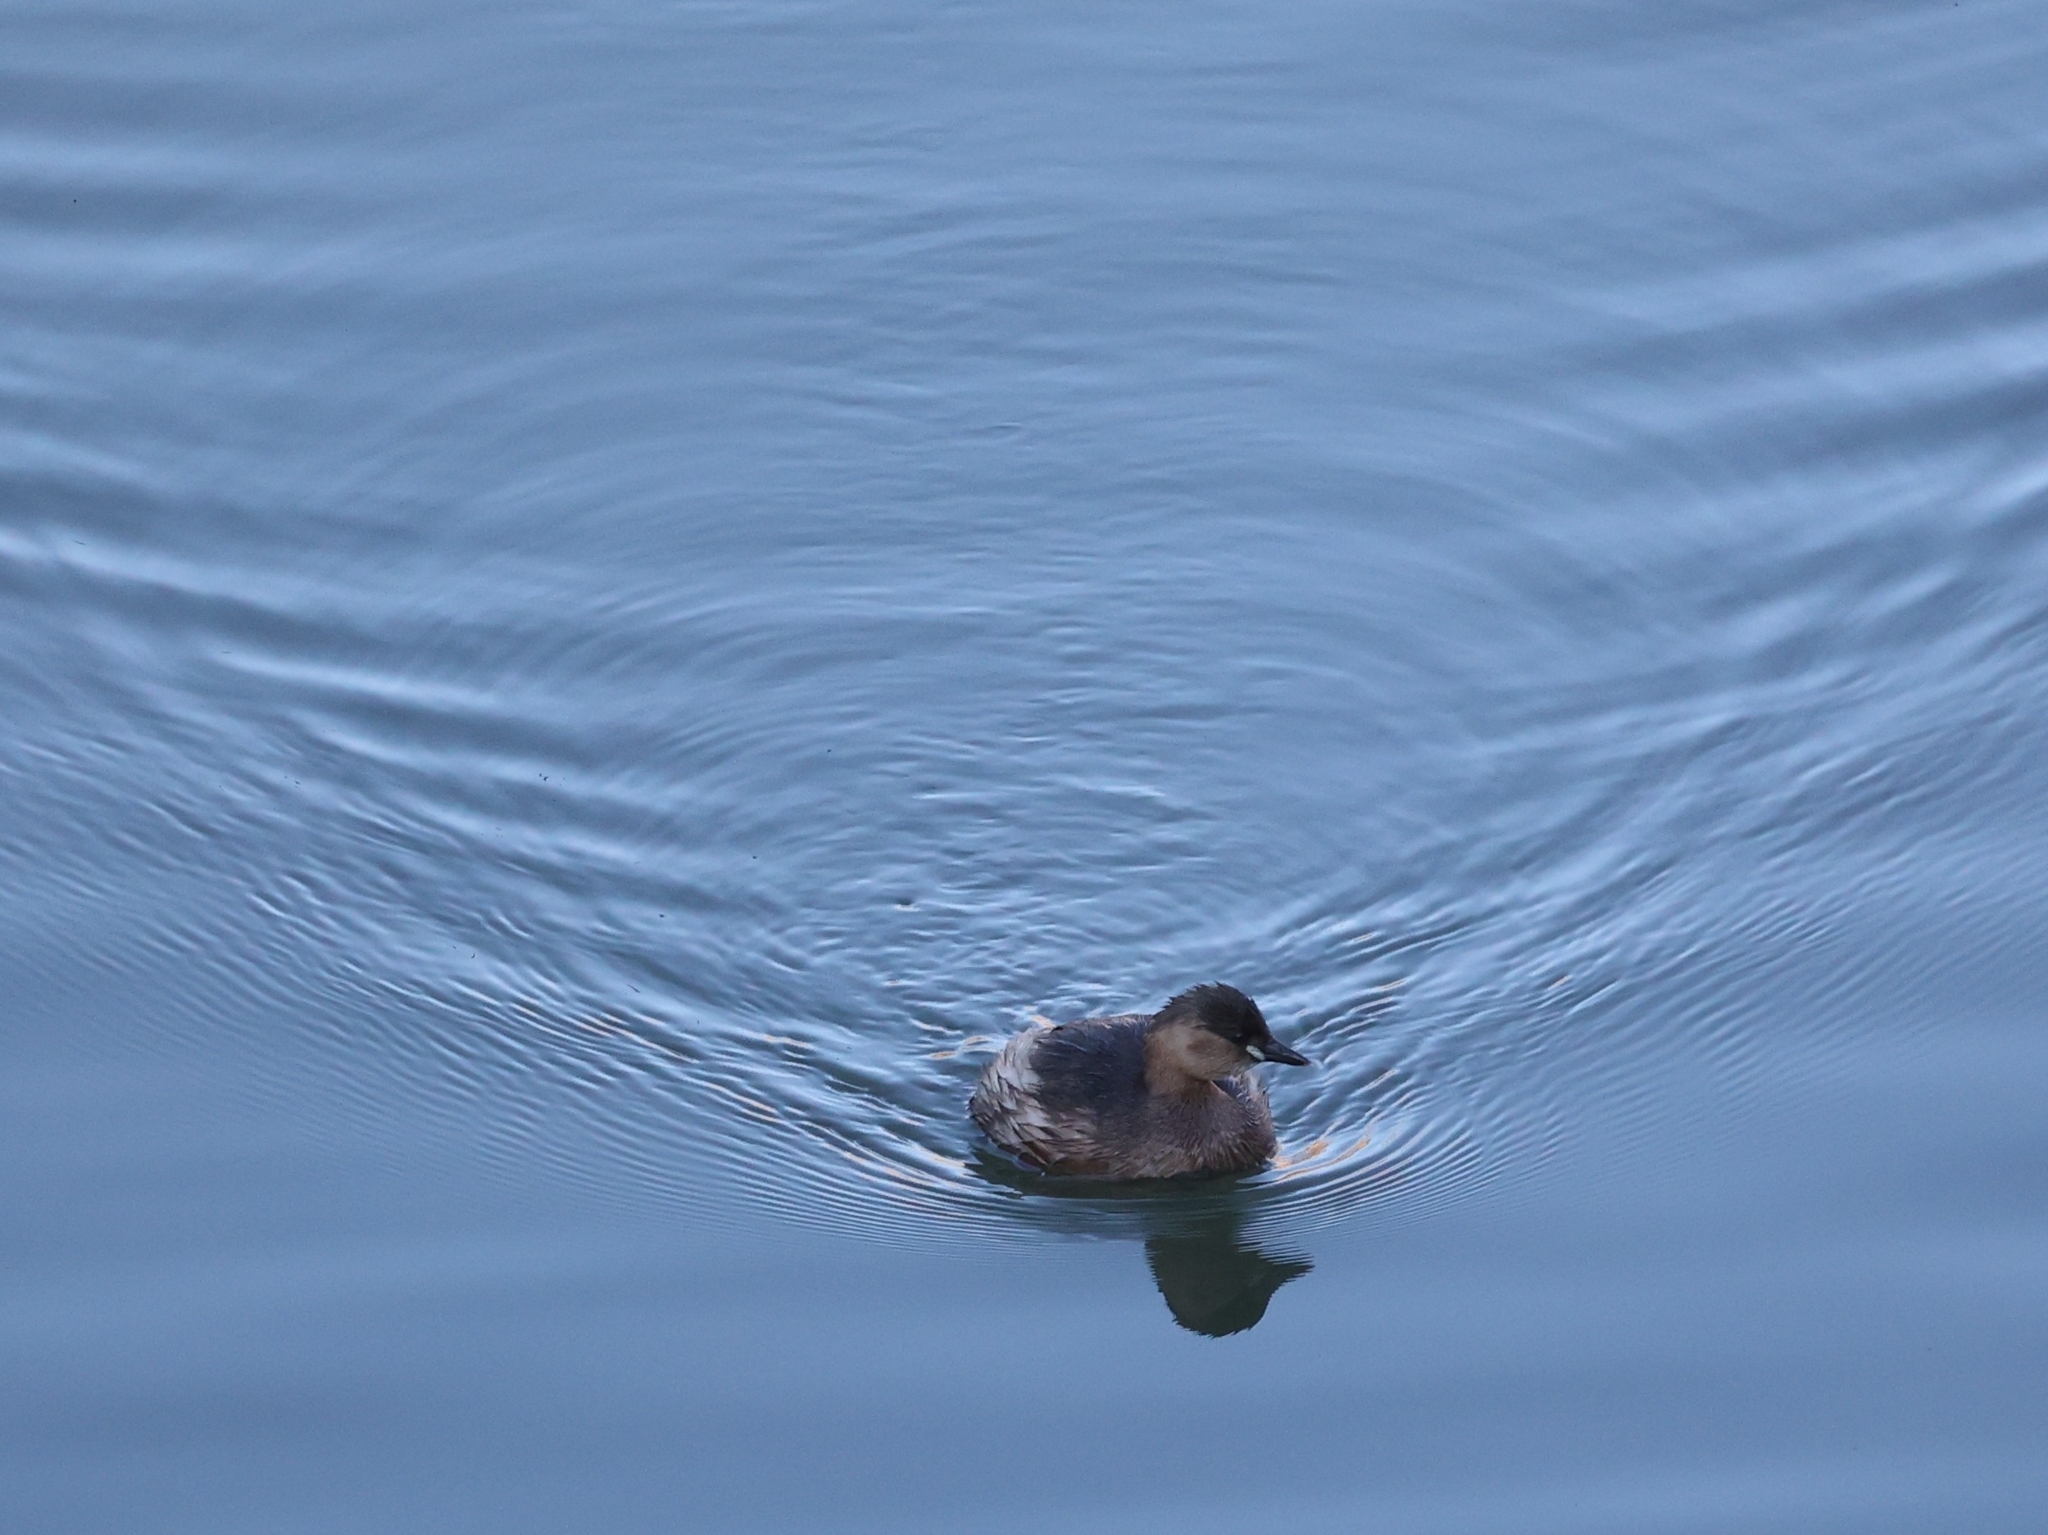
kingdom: Animalia
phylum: Chordata
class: Aves
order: Podicipediformes
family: Podicipedidae
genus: Tachybaptus
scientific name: Tachybaptus ruficollis
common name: Little grebe
